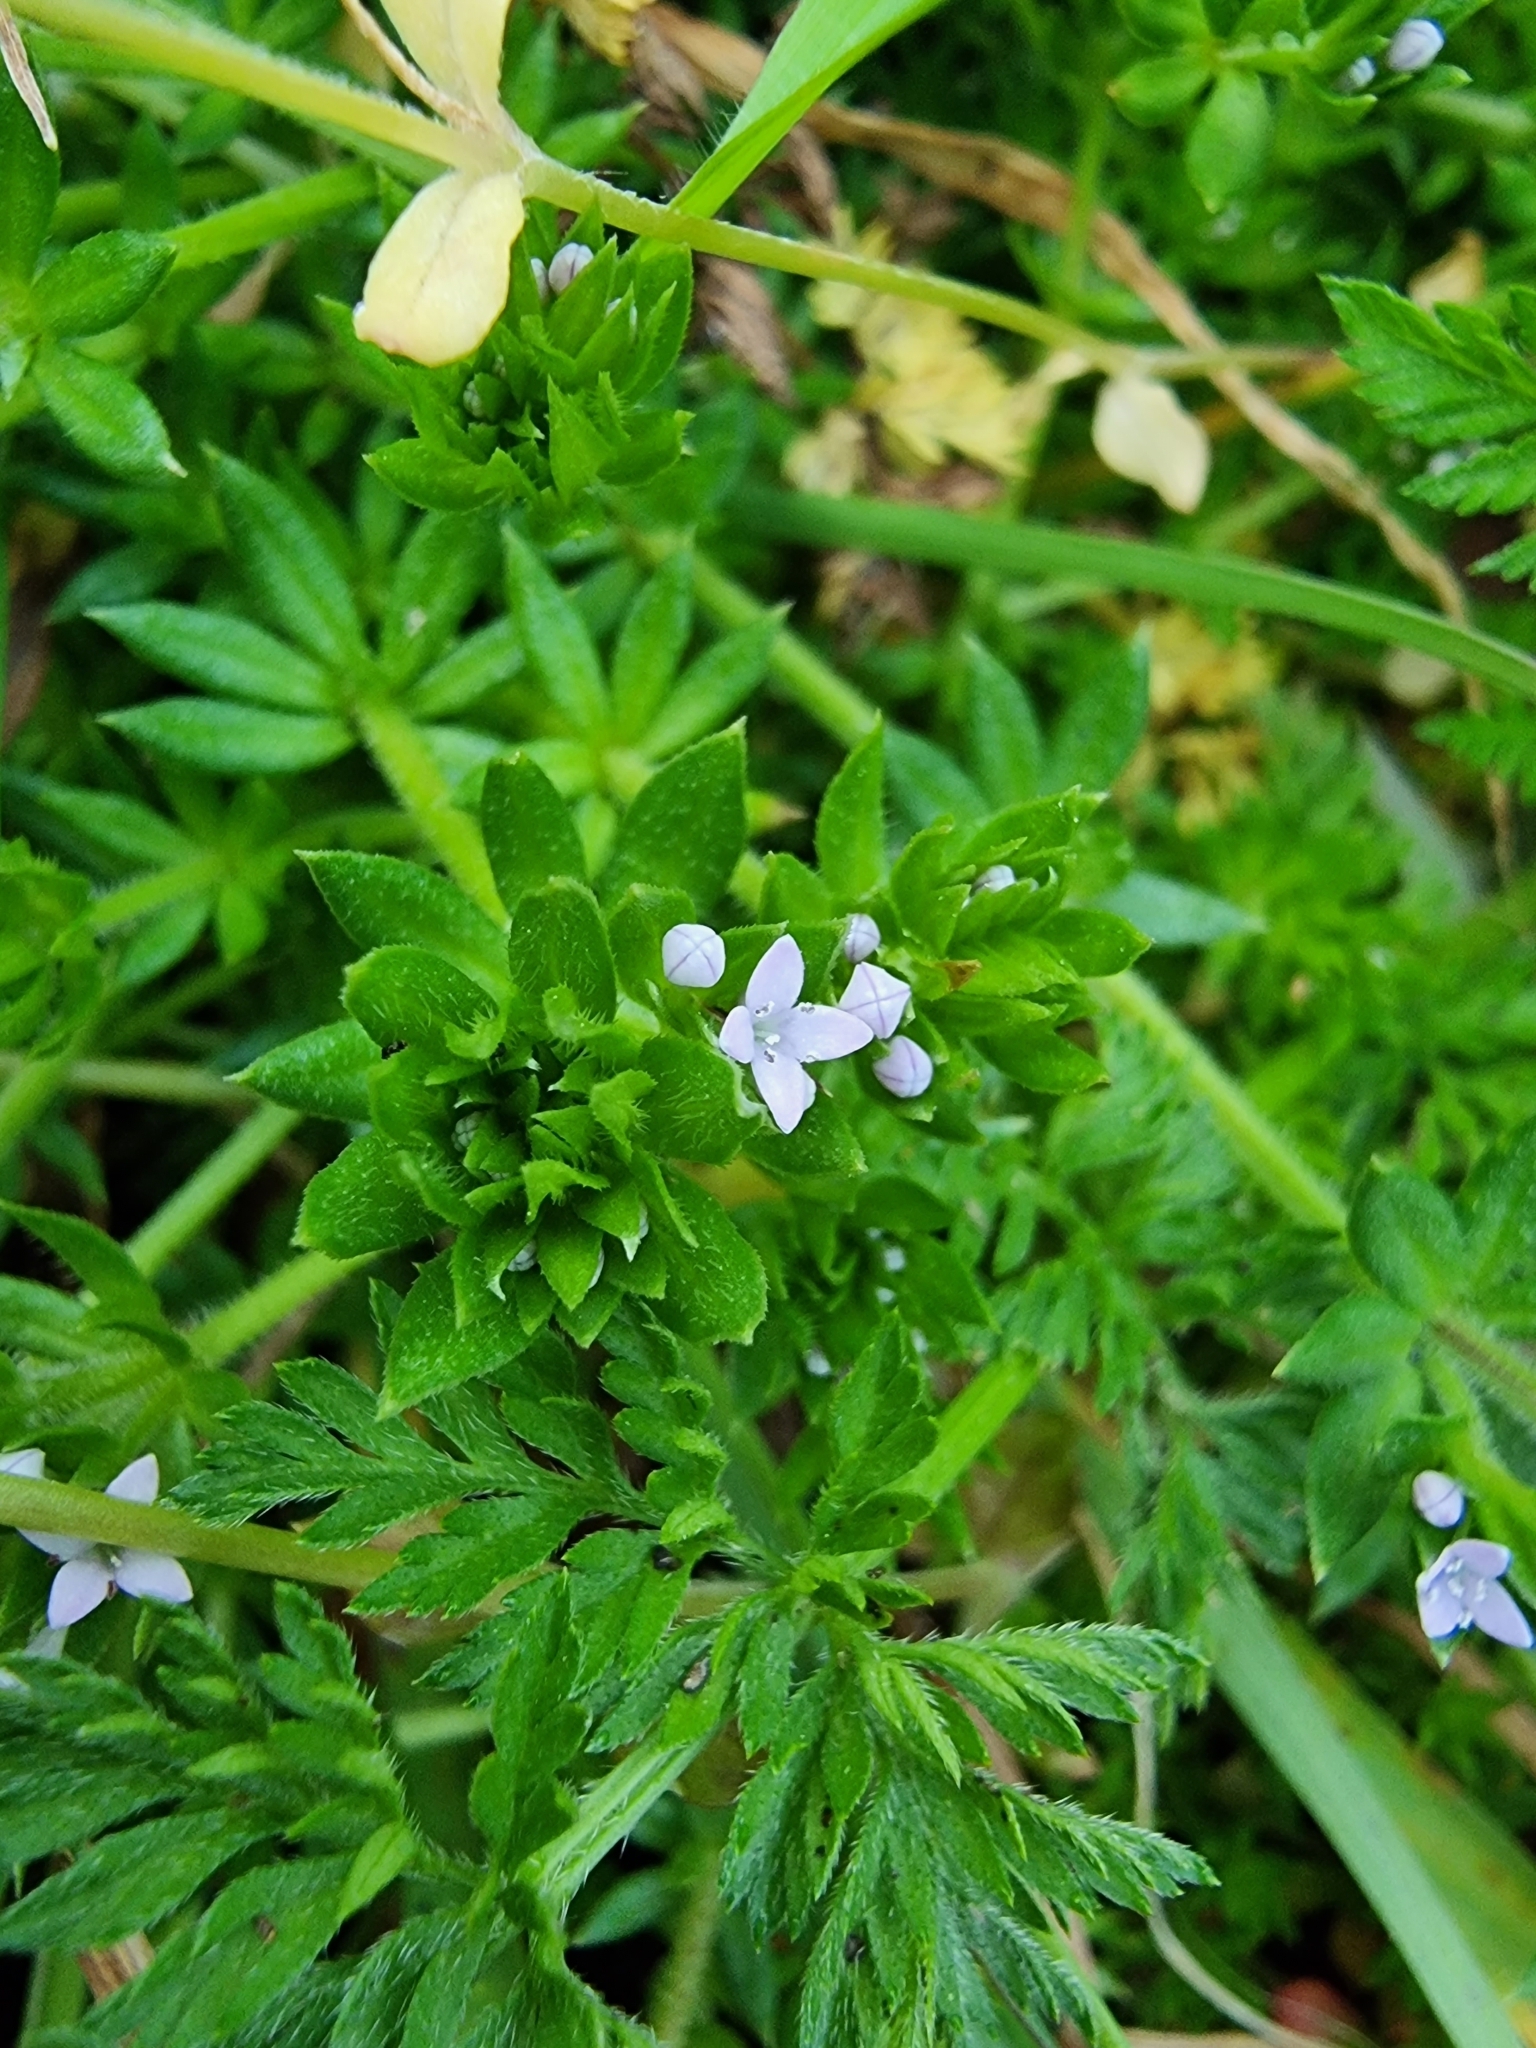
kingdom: Plantae
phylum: Tracheophyta
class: Magnoliopsida
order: Gentianales
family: Rubiaceae
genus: Sherardia
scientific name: Sherardia arvensis
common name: Field madder
